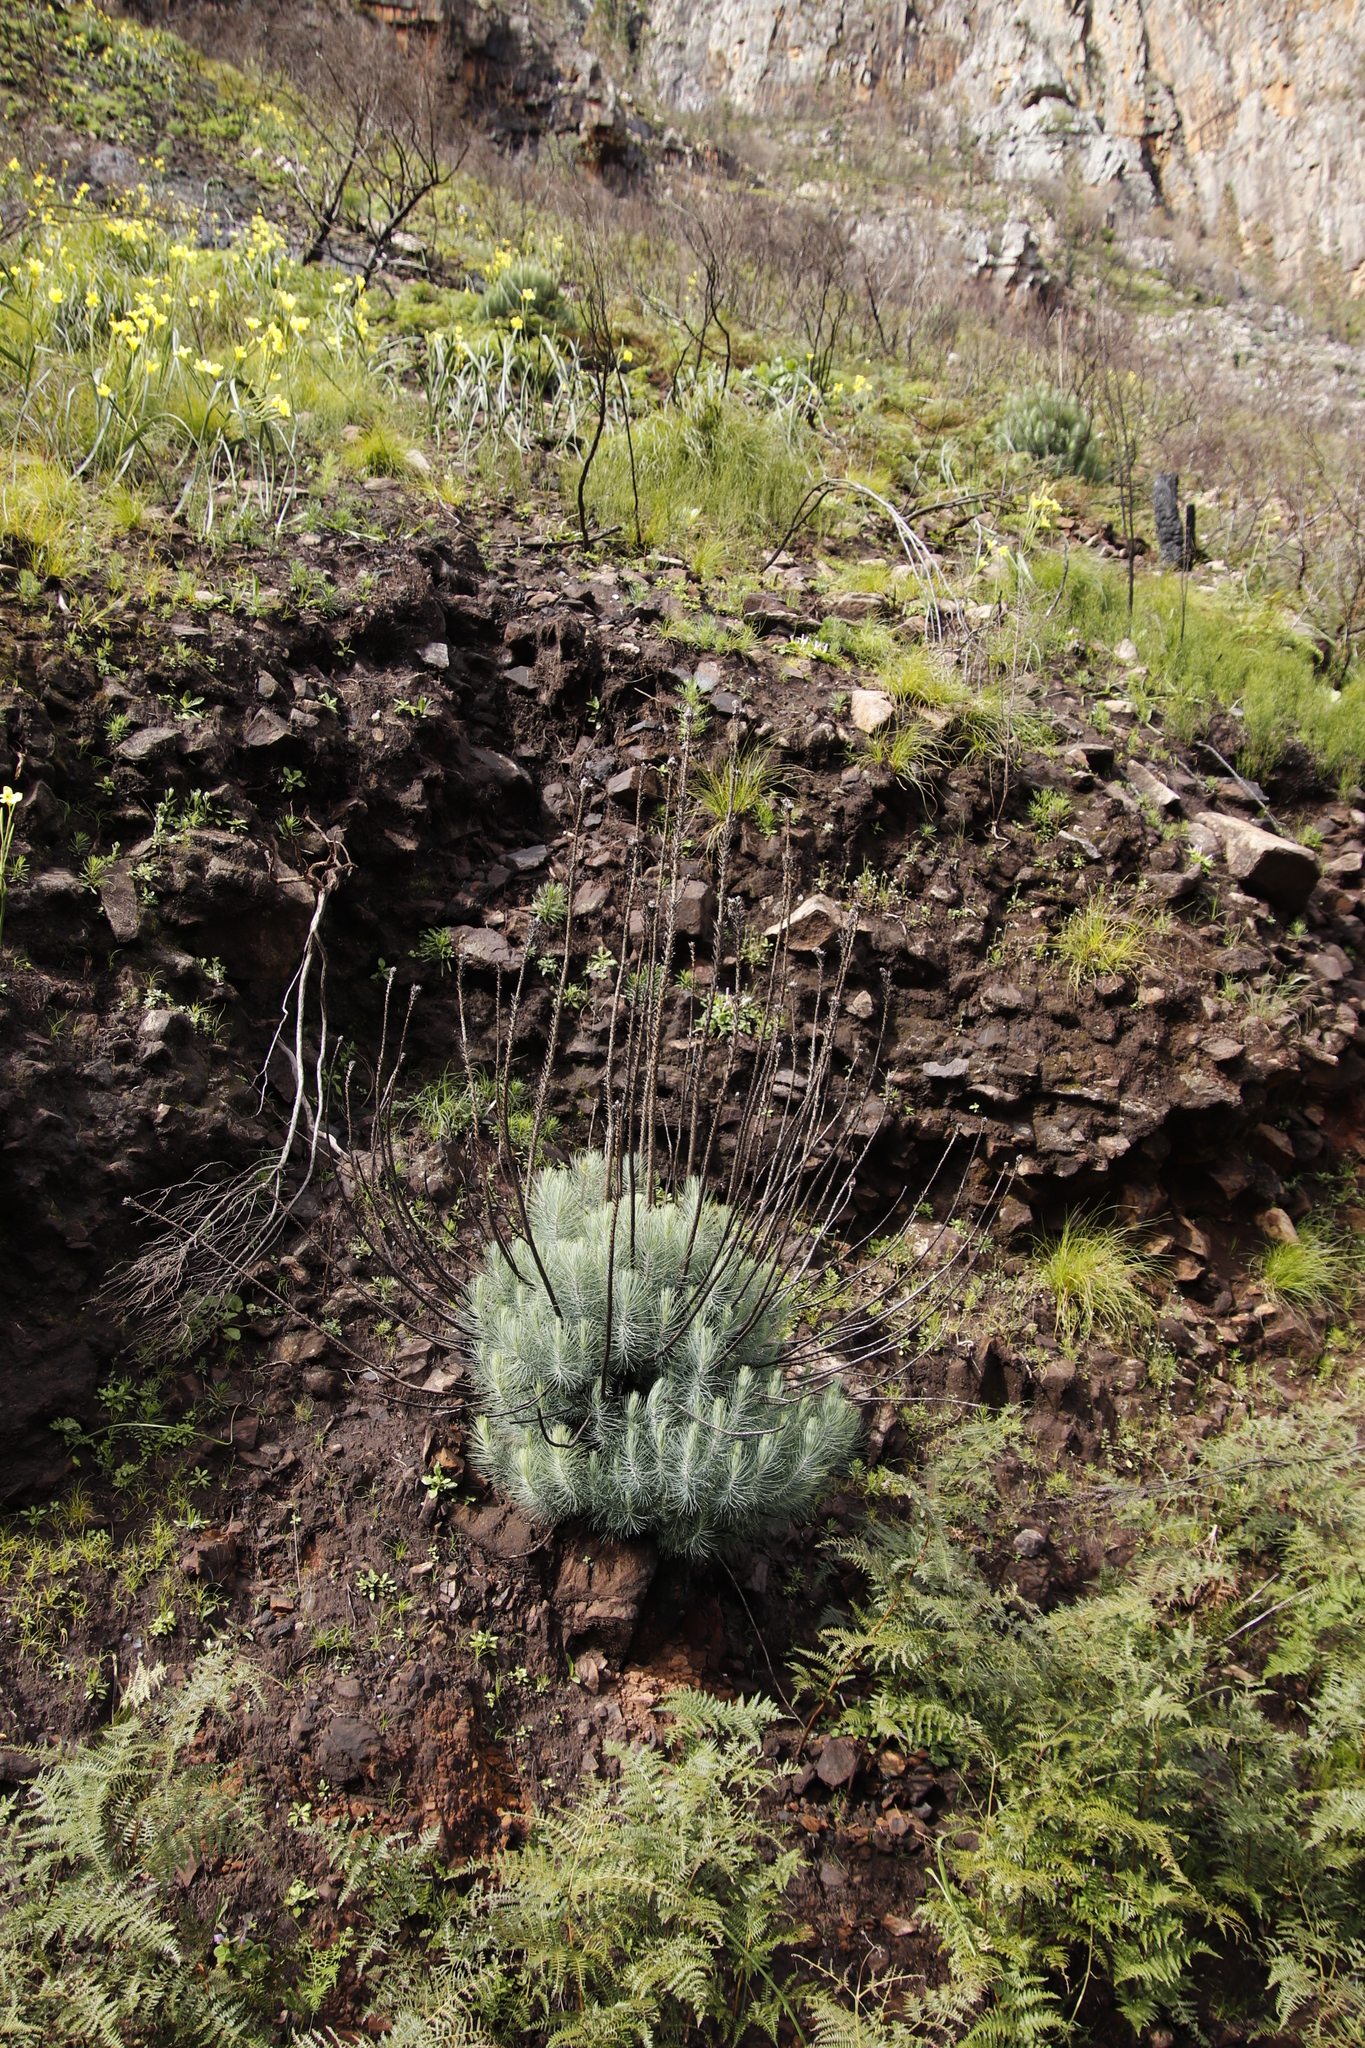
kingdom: Plantae
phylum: Tracheophyta
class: Pinopsida
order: Pinales
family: Pinaceae
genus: Pinus
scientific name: Pinus canariensis
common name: Canary islands pine
